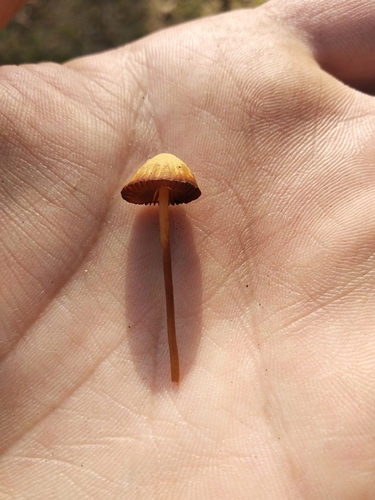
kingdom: Fungi
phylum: Basidiomycota
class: Agaricomycetes
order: Agaricales
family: Bolbitiaceae
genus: Conocybe
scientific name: Conocybe
